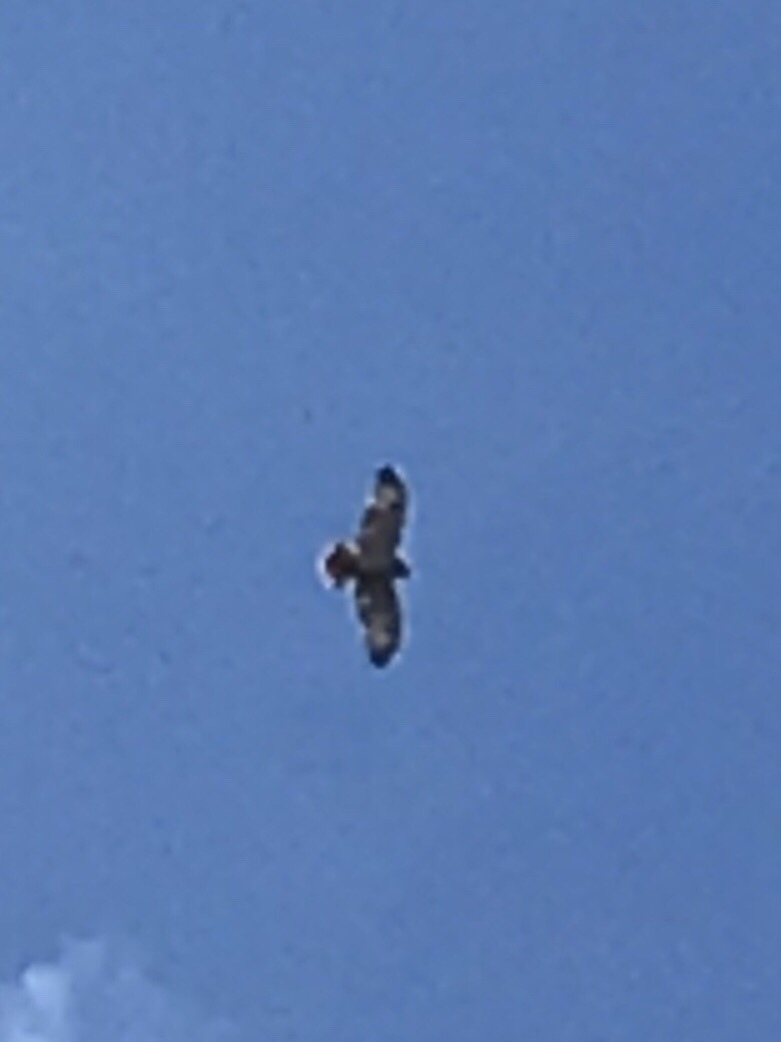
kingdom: Animalia
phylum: Chordata
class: Aves
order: Accipitriformes
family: Accipitridae
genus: Buteo
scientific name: Buteo jamaicensis
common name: Red-tailed hawk
